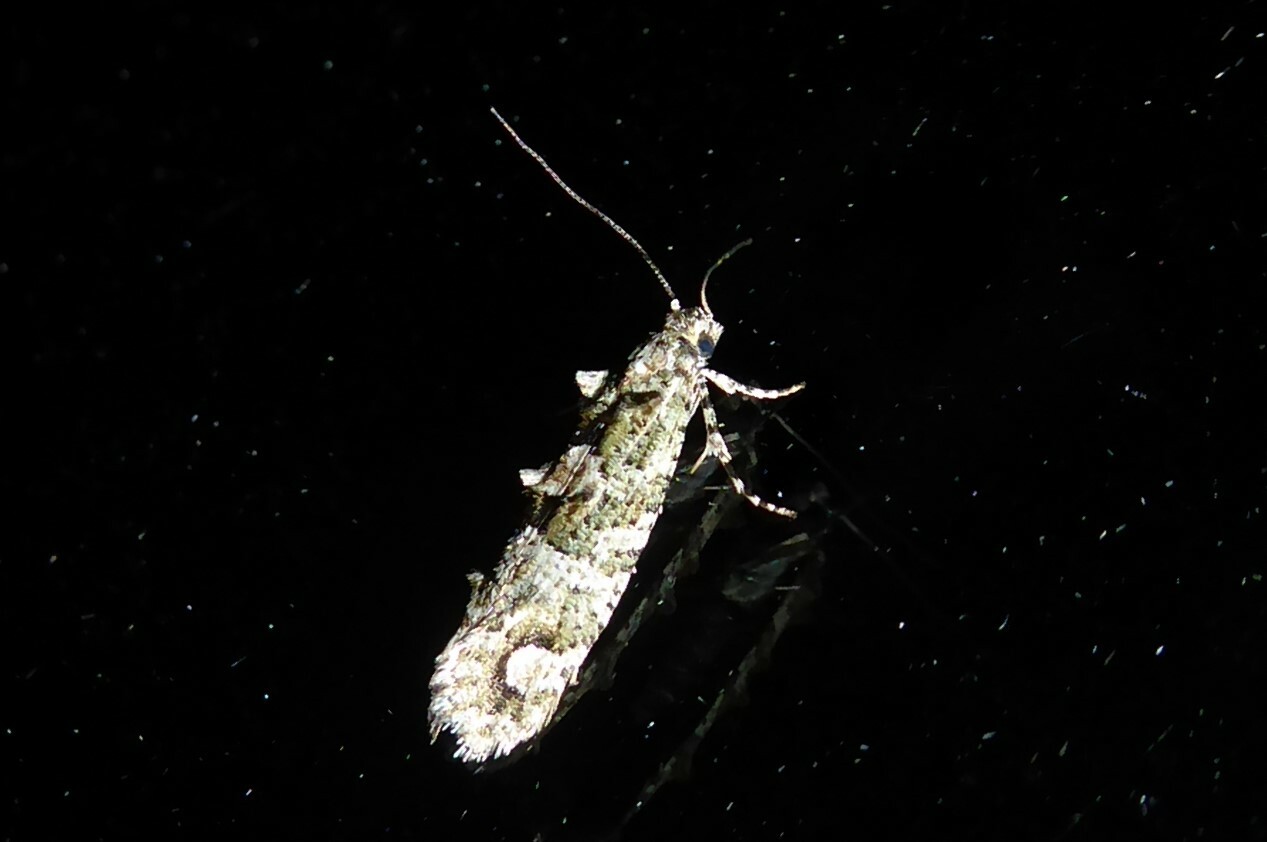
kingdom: Animalia
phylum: Arthropoda
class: Insecta
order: Lepidoptera
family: Tineidae
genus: Lysiphragma
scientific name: Lysiphragma howesii
